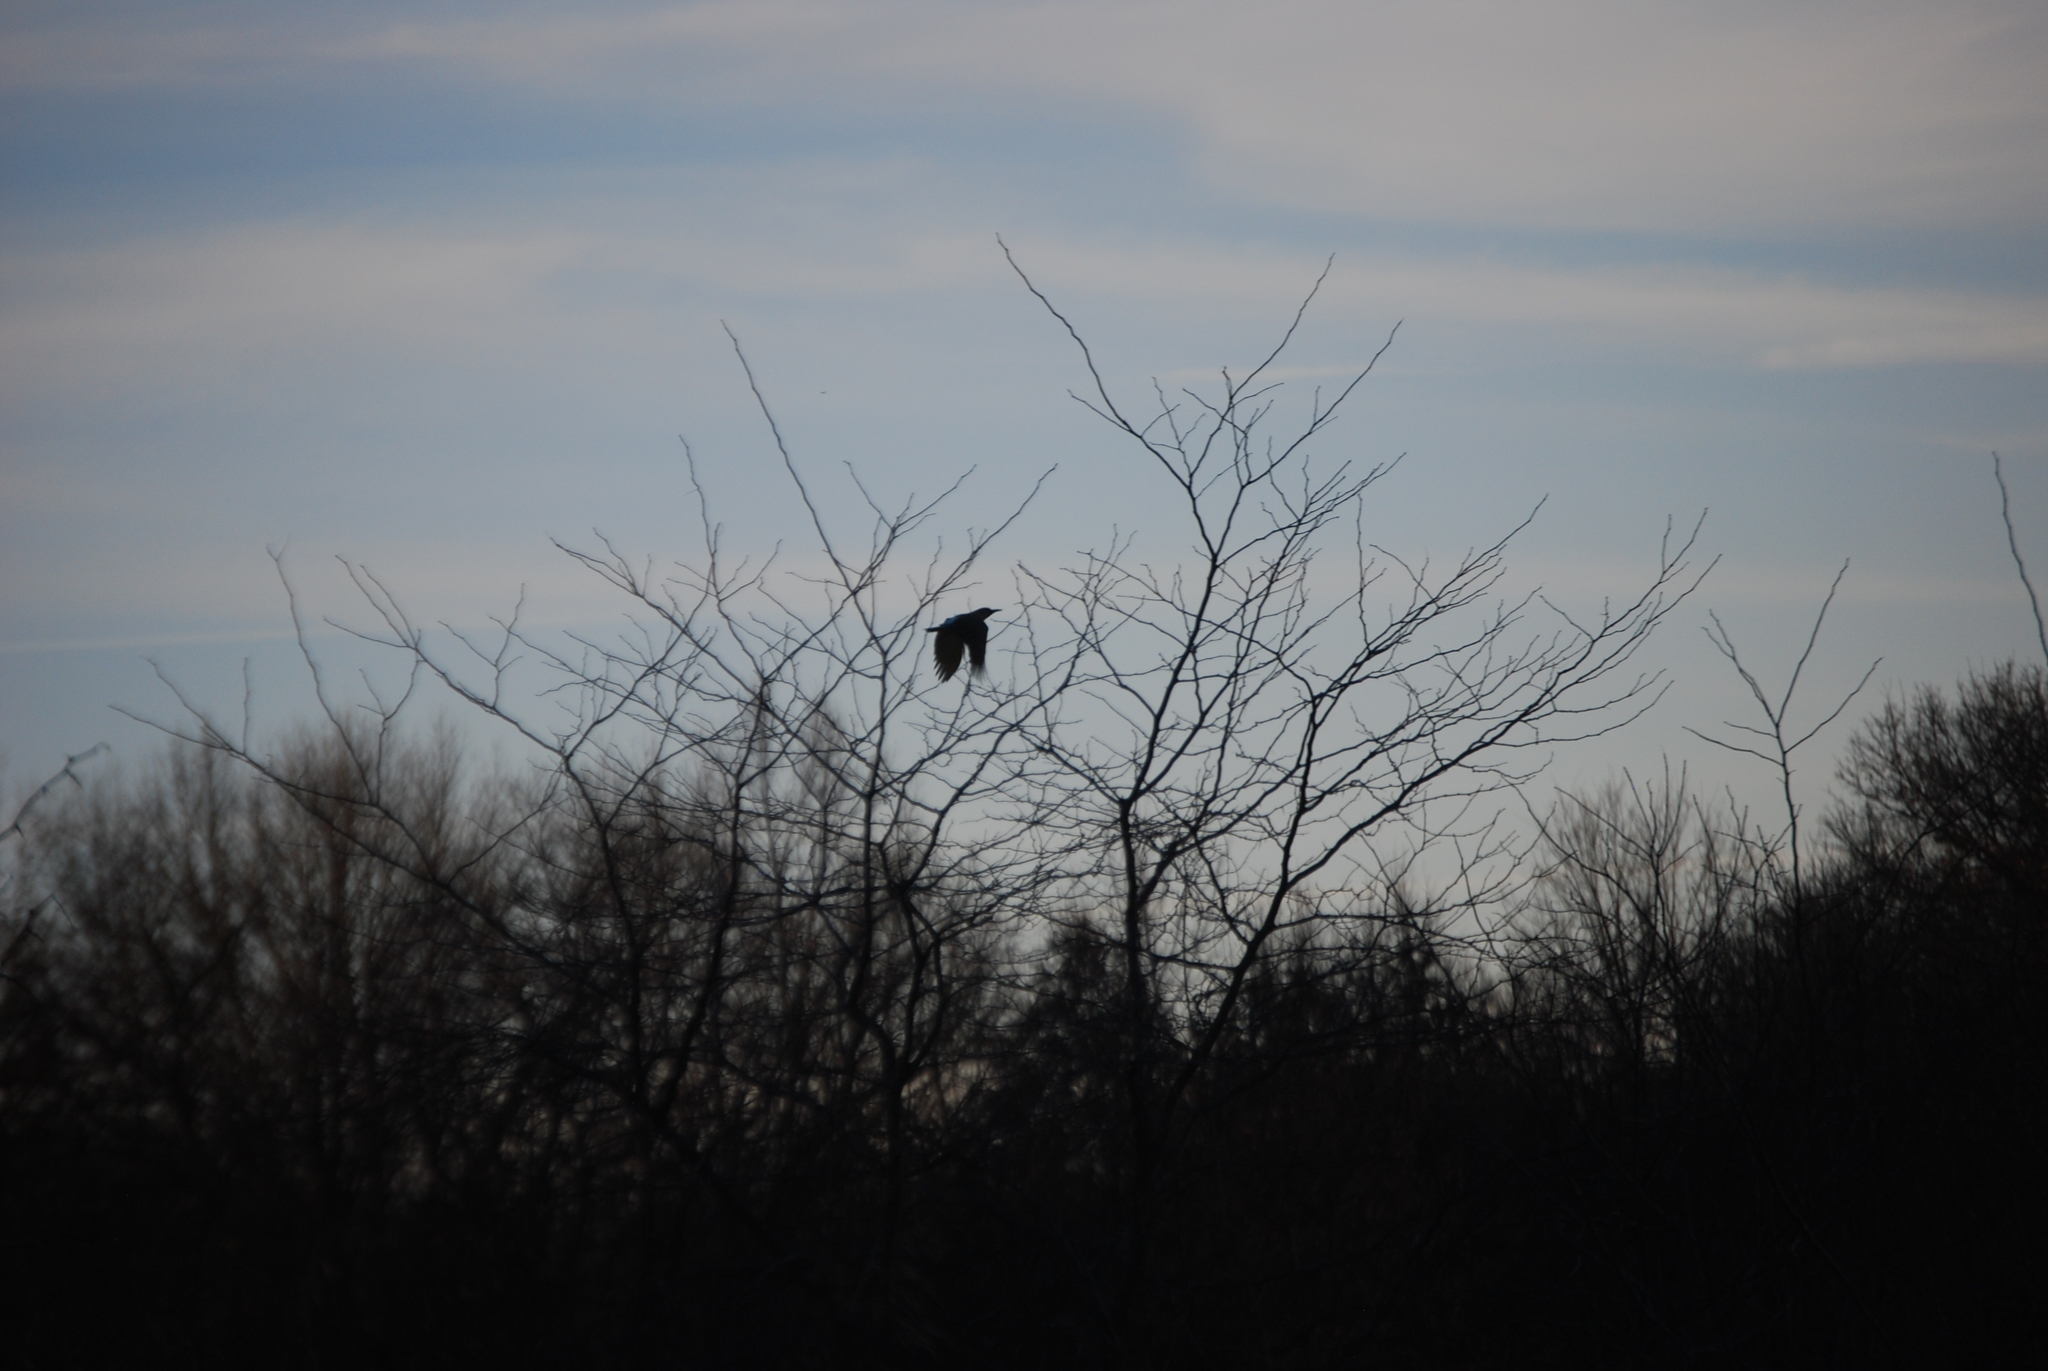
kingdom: Animalia
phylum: Chordata
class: Aves
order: Piciformes
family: Picidae
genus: Colaptes
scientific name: Colaptes auratus
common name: Northern flicker
